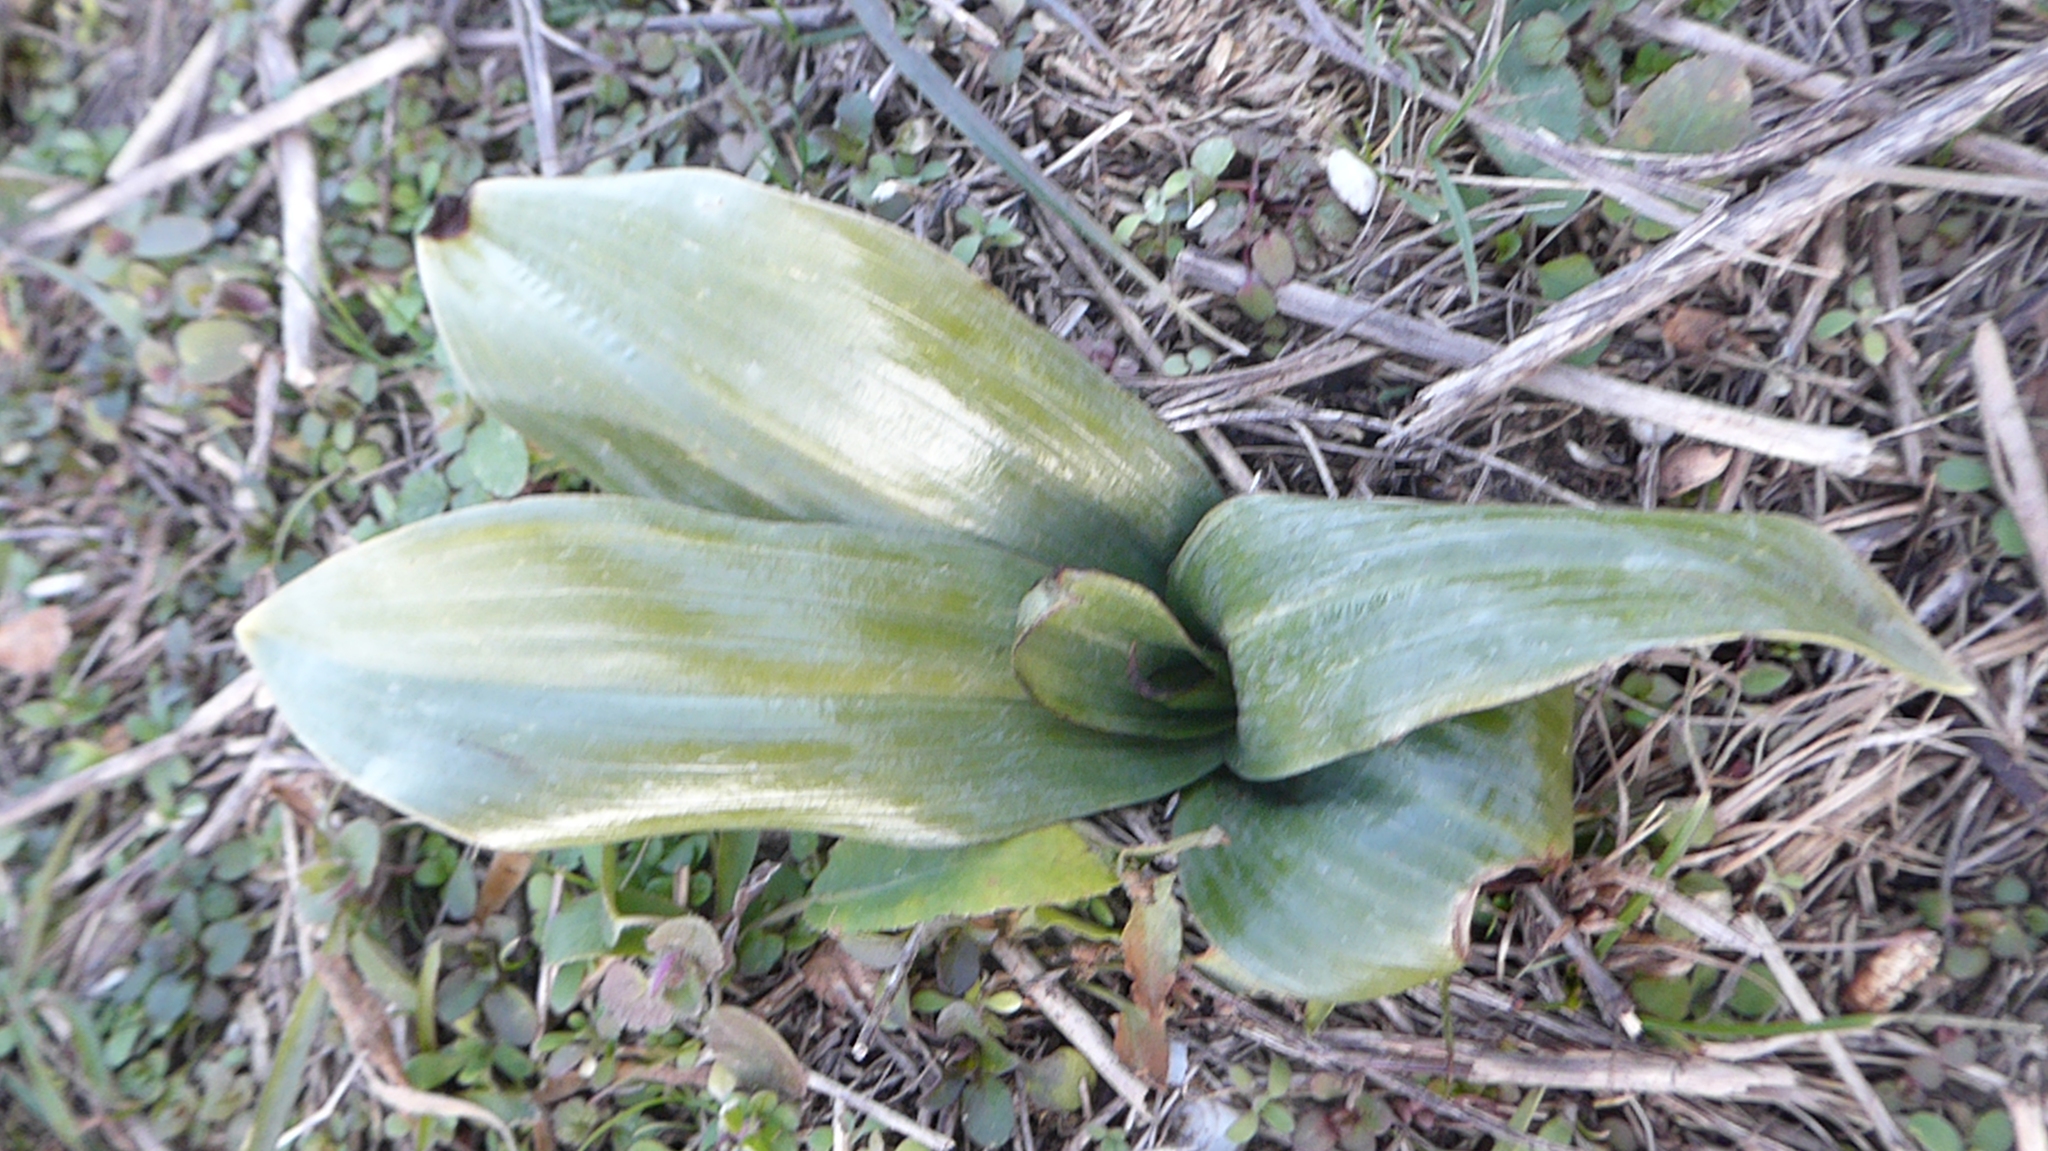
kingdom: Plantae
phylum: Tracheophyta
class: Liliopsida
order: Asparagales
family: Orchidaceae
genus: Himantoglossum
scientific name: Himantoglossum adriaticum
